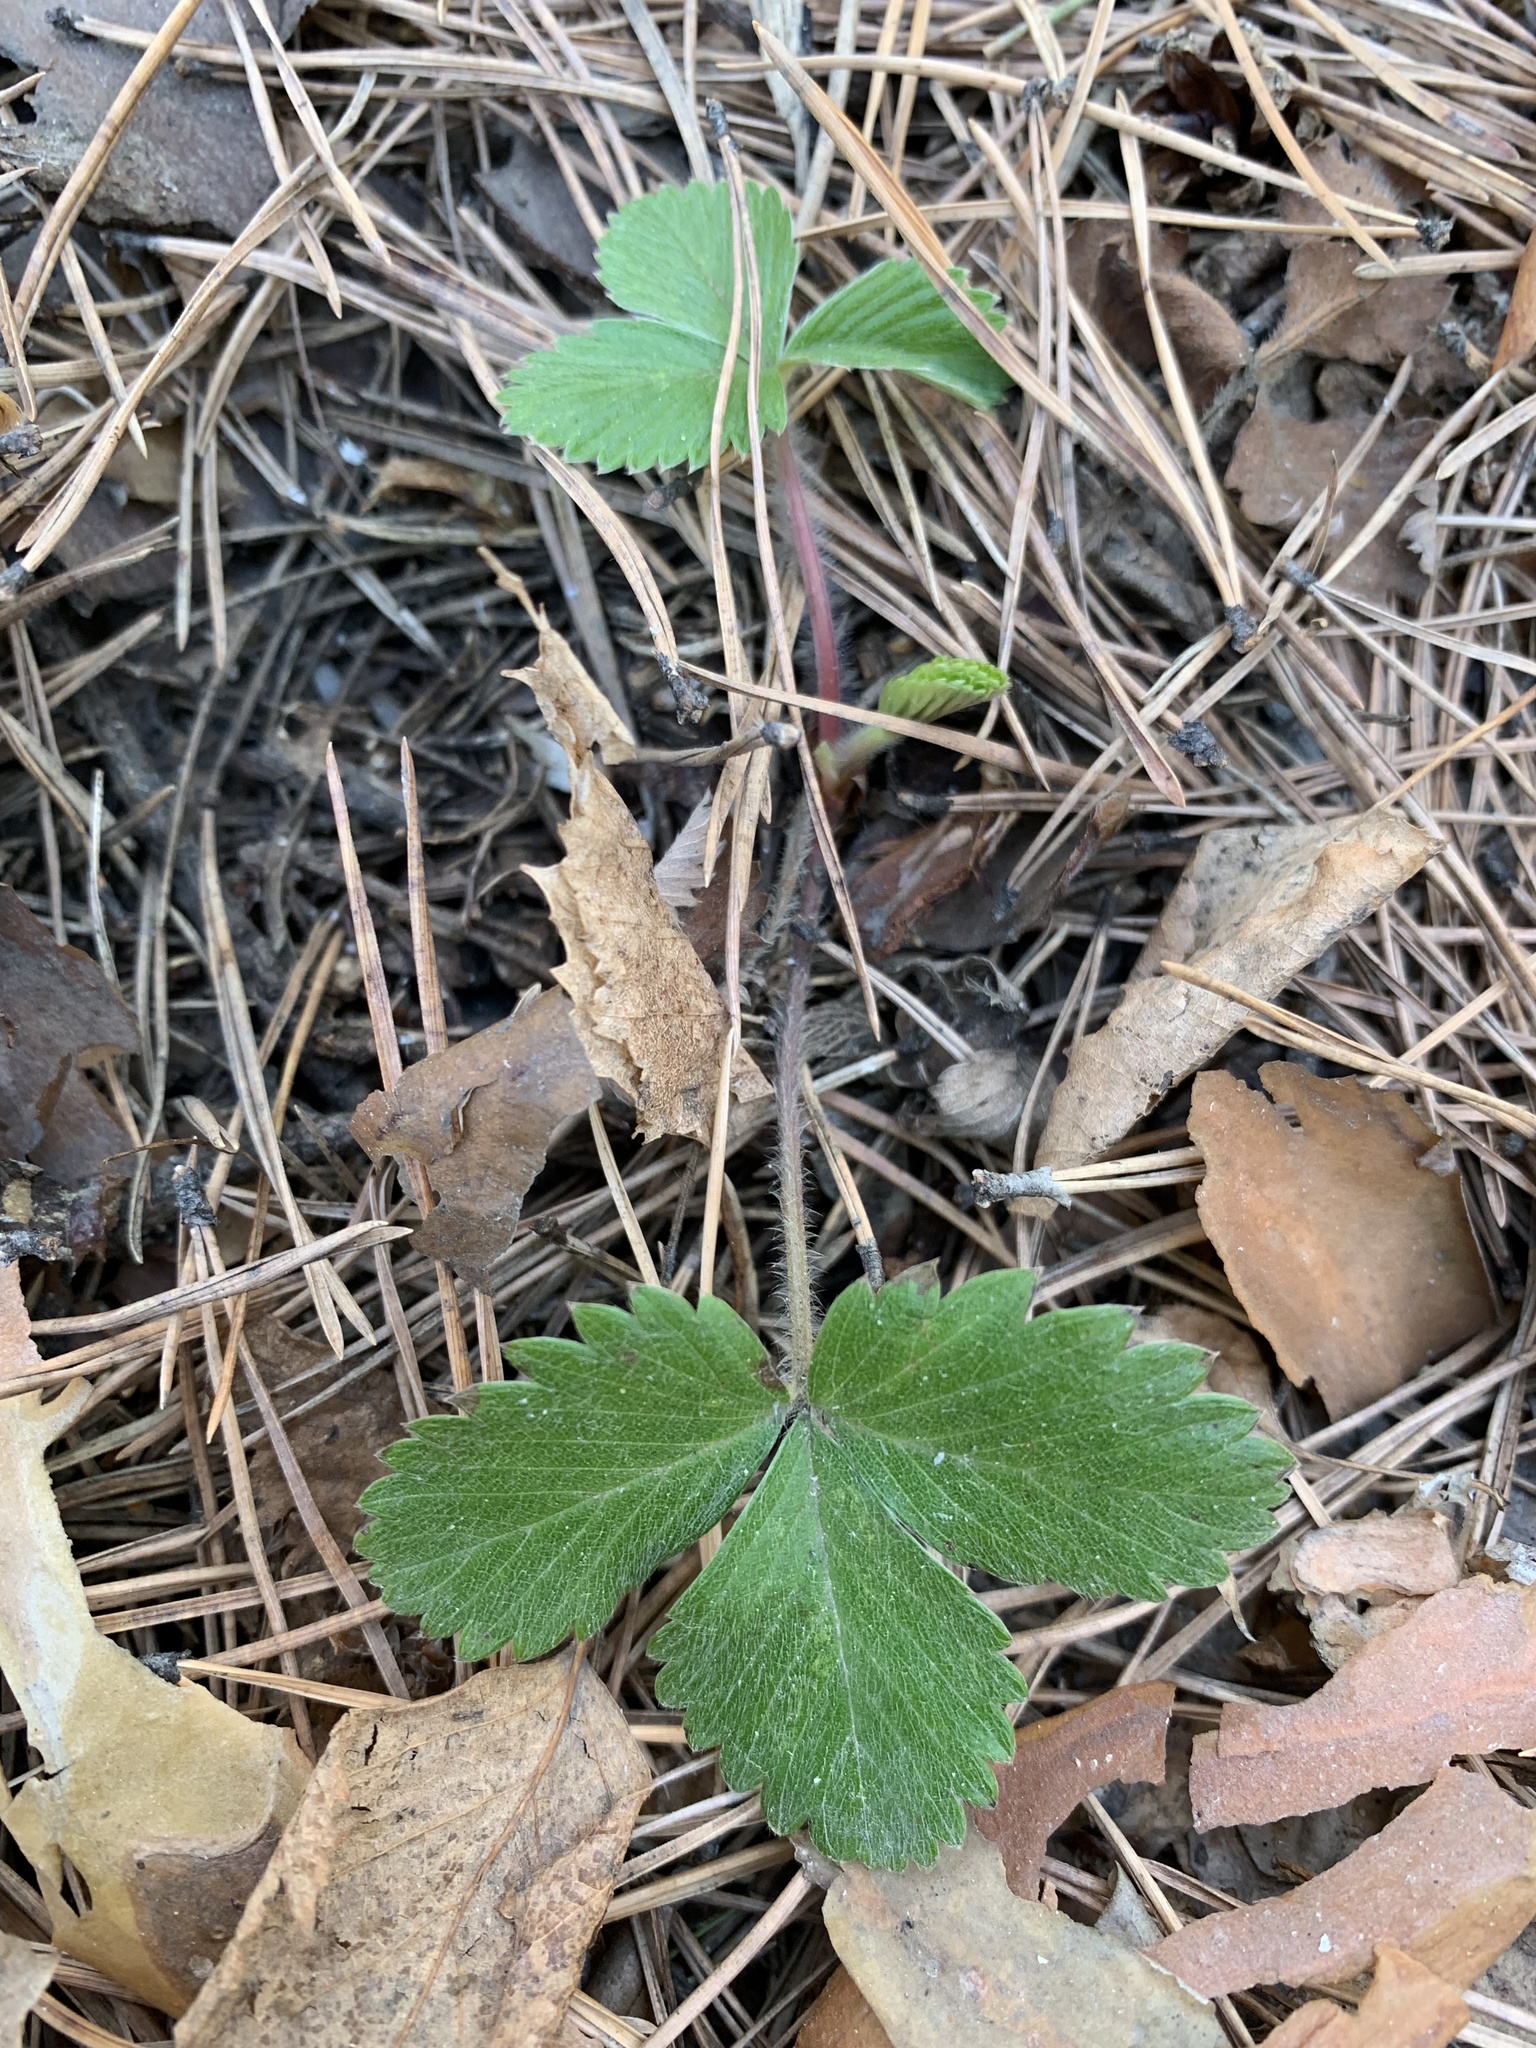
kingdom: Plantae
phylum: Tracheophyta
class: Magnoliopsida
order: Rosales
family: Rosaceae
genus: Fragaria
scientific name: Fragaria vesca
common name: Wild strawberry
